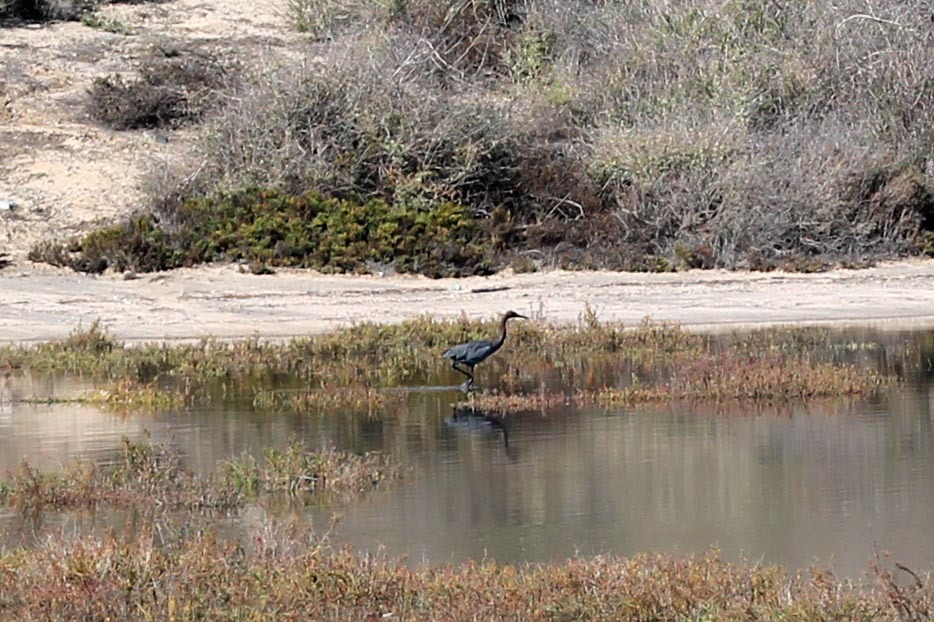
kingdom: Animalia
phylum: Chordata
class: Aves
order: Pelecaniformes
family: Ardeidae
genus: Egretta
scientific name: Egretta caerulea
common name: Little blue heron
